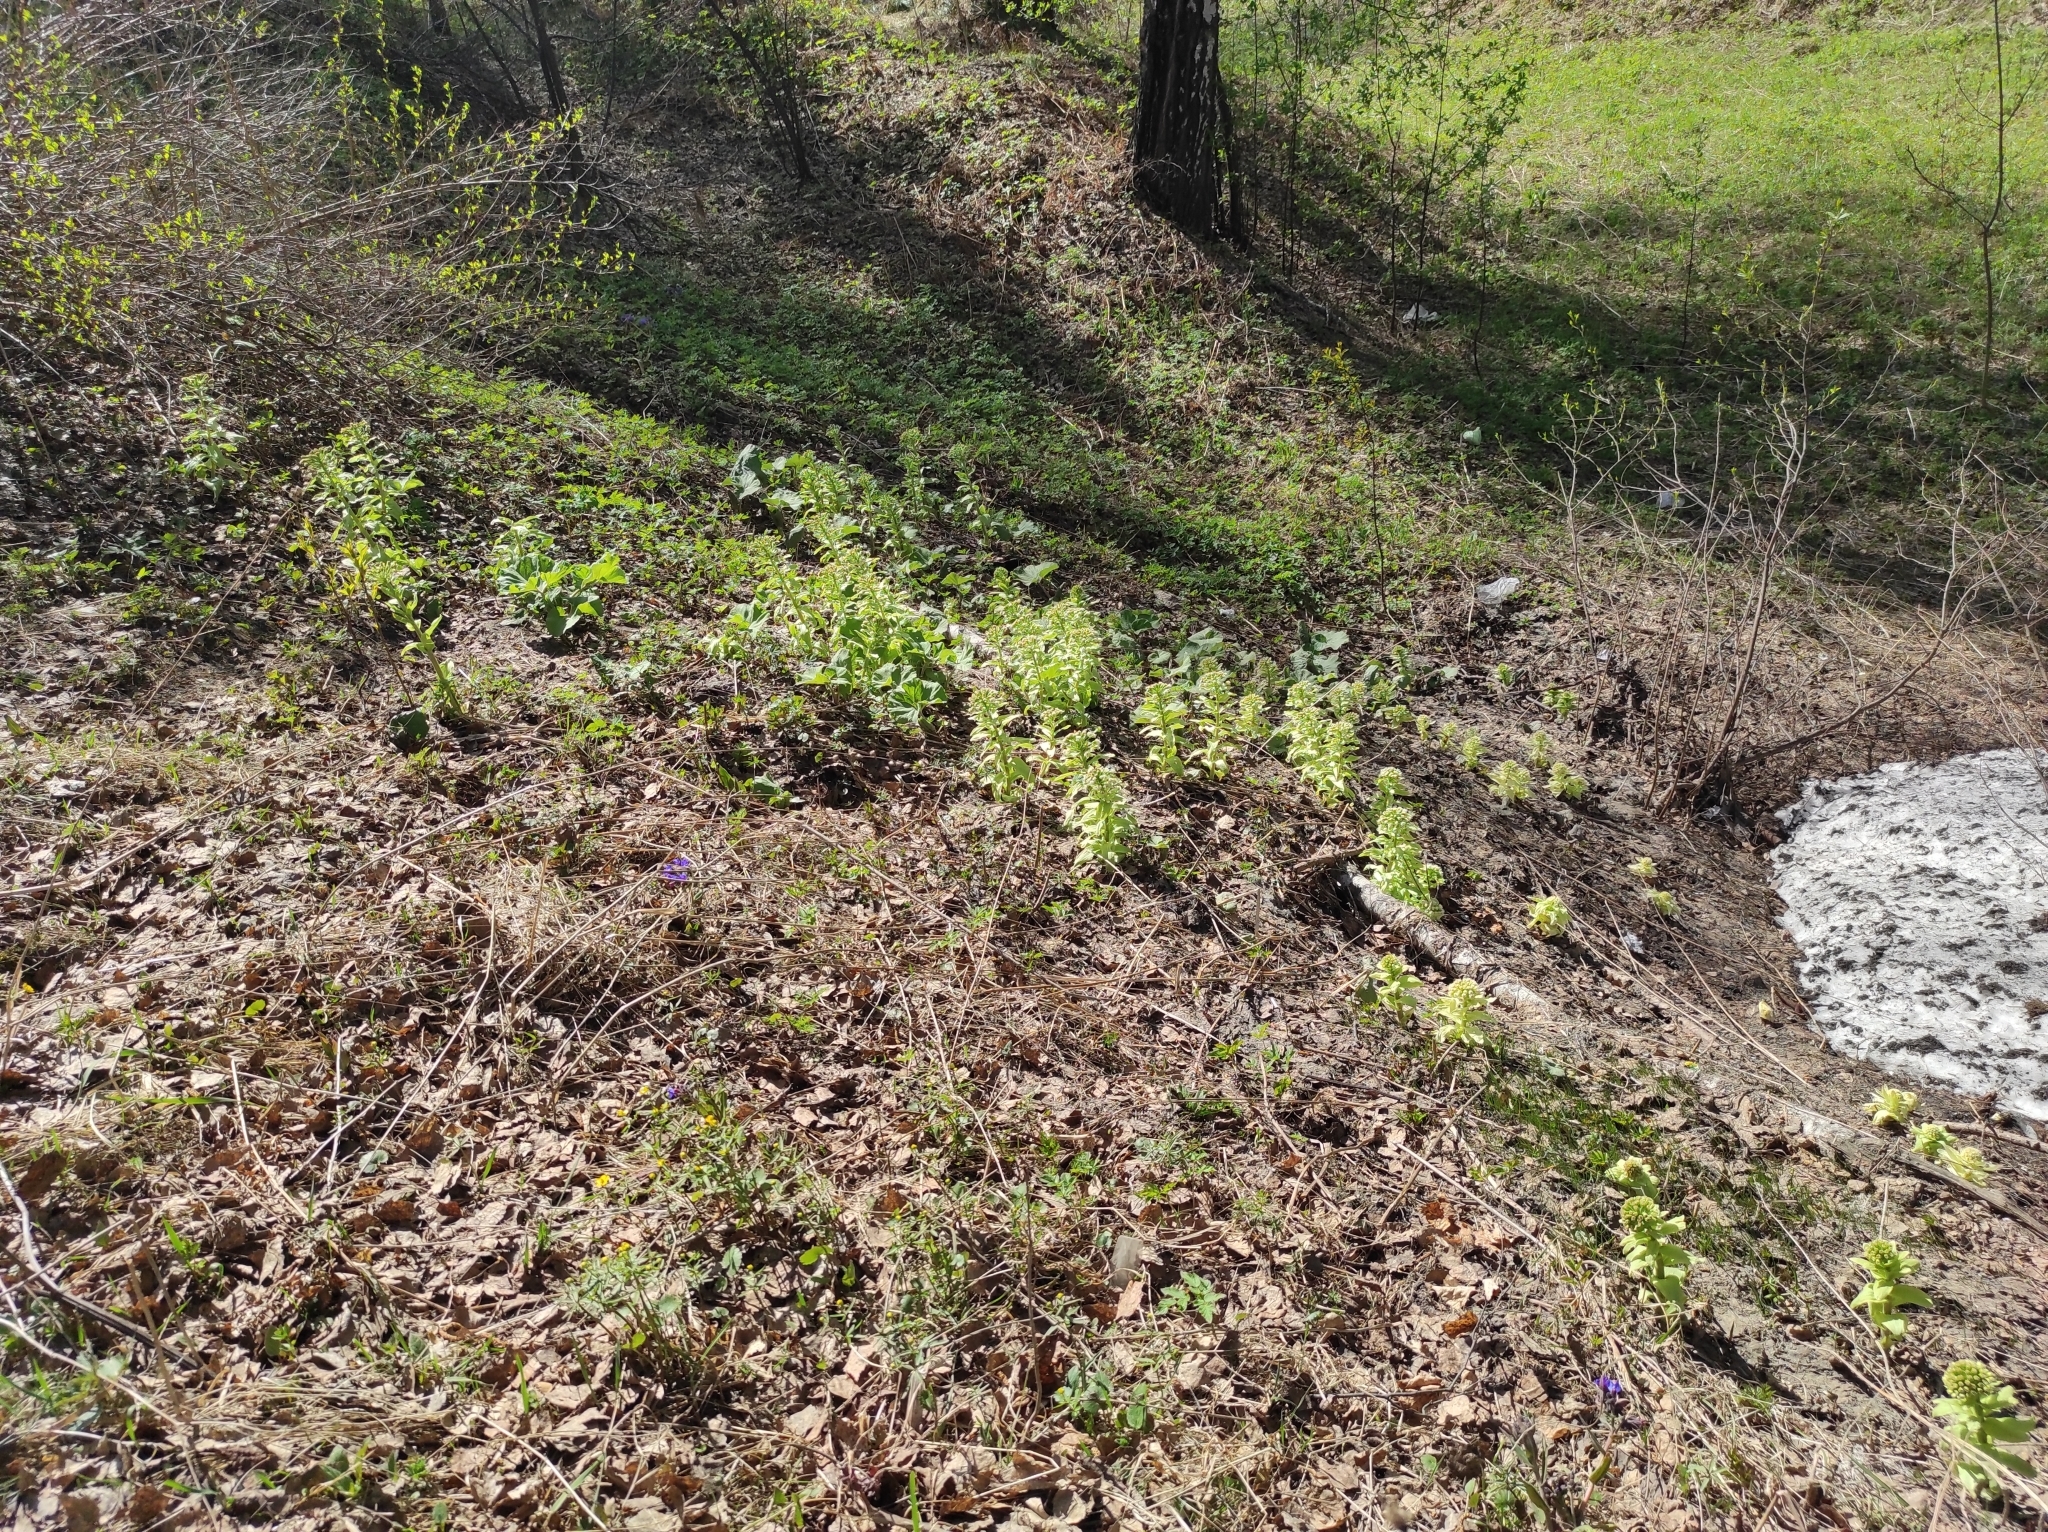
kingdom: Plantae
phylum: Tracheophyta
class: Magnoliopsida
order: Asterales
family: Asteraceae
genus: Petasites
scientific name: Petasites japonicus
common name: Giant butterbur
